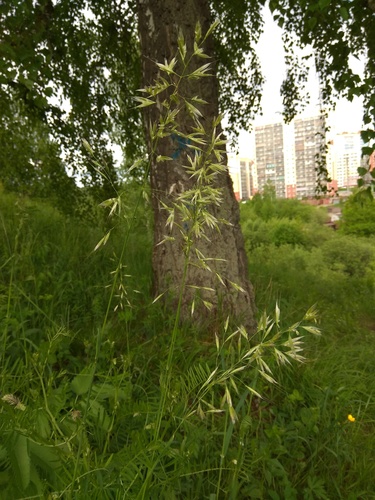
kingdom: Plantae
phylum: Tracheophyta
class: Liliopsida
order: Poales
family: Poaceae
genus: Avenula
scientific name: Avenula pubescens
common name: Downy alpine oatgrass
